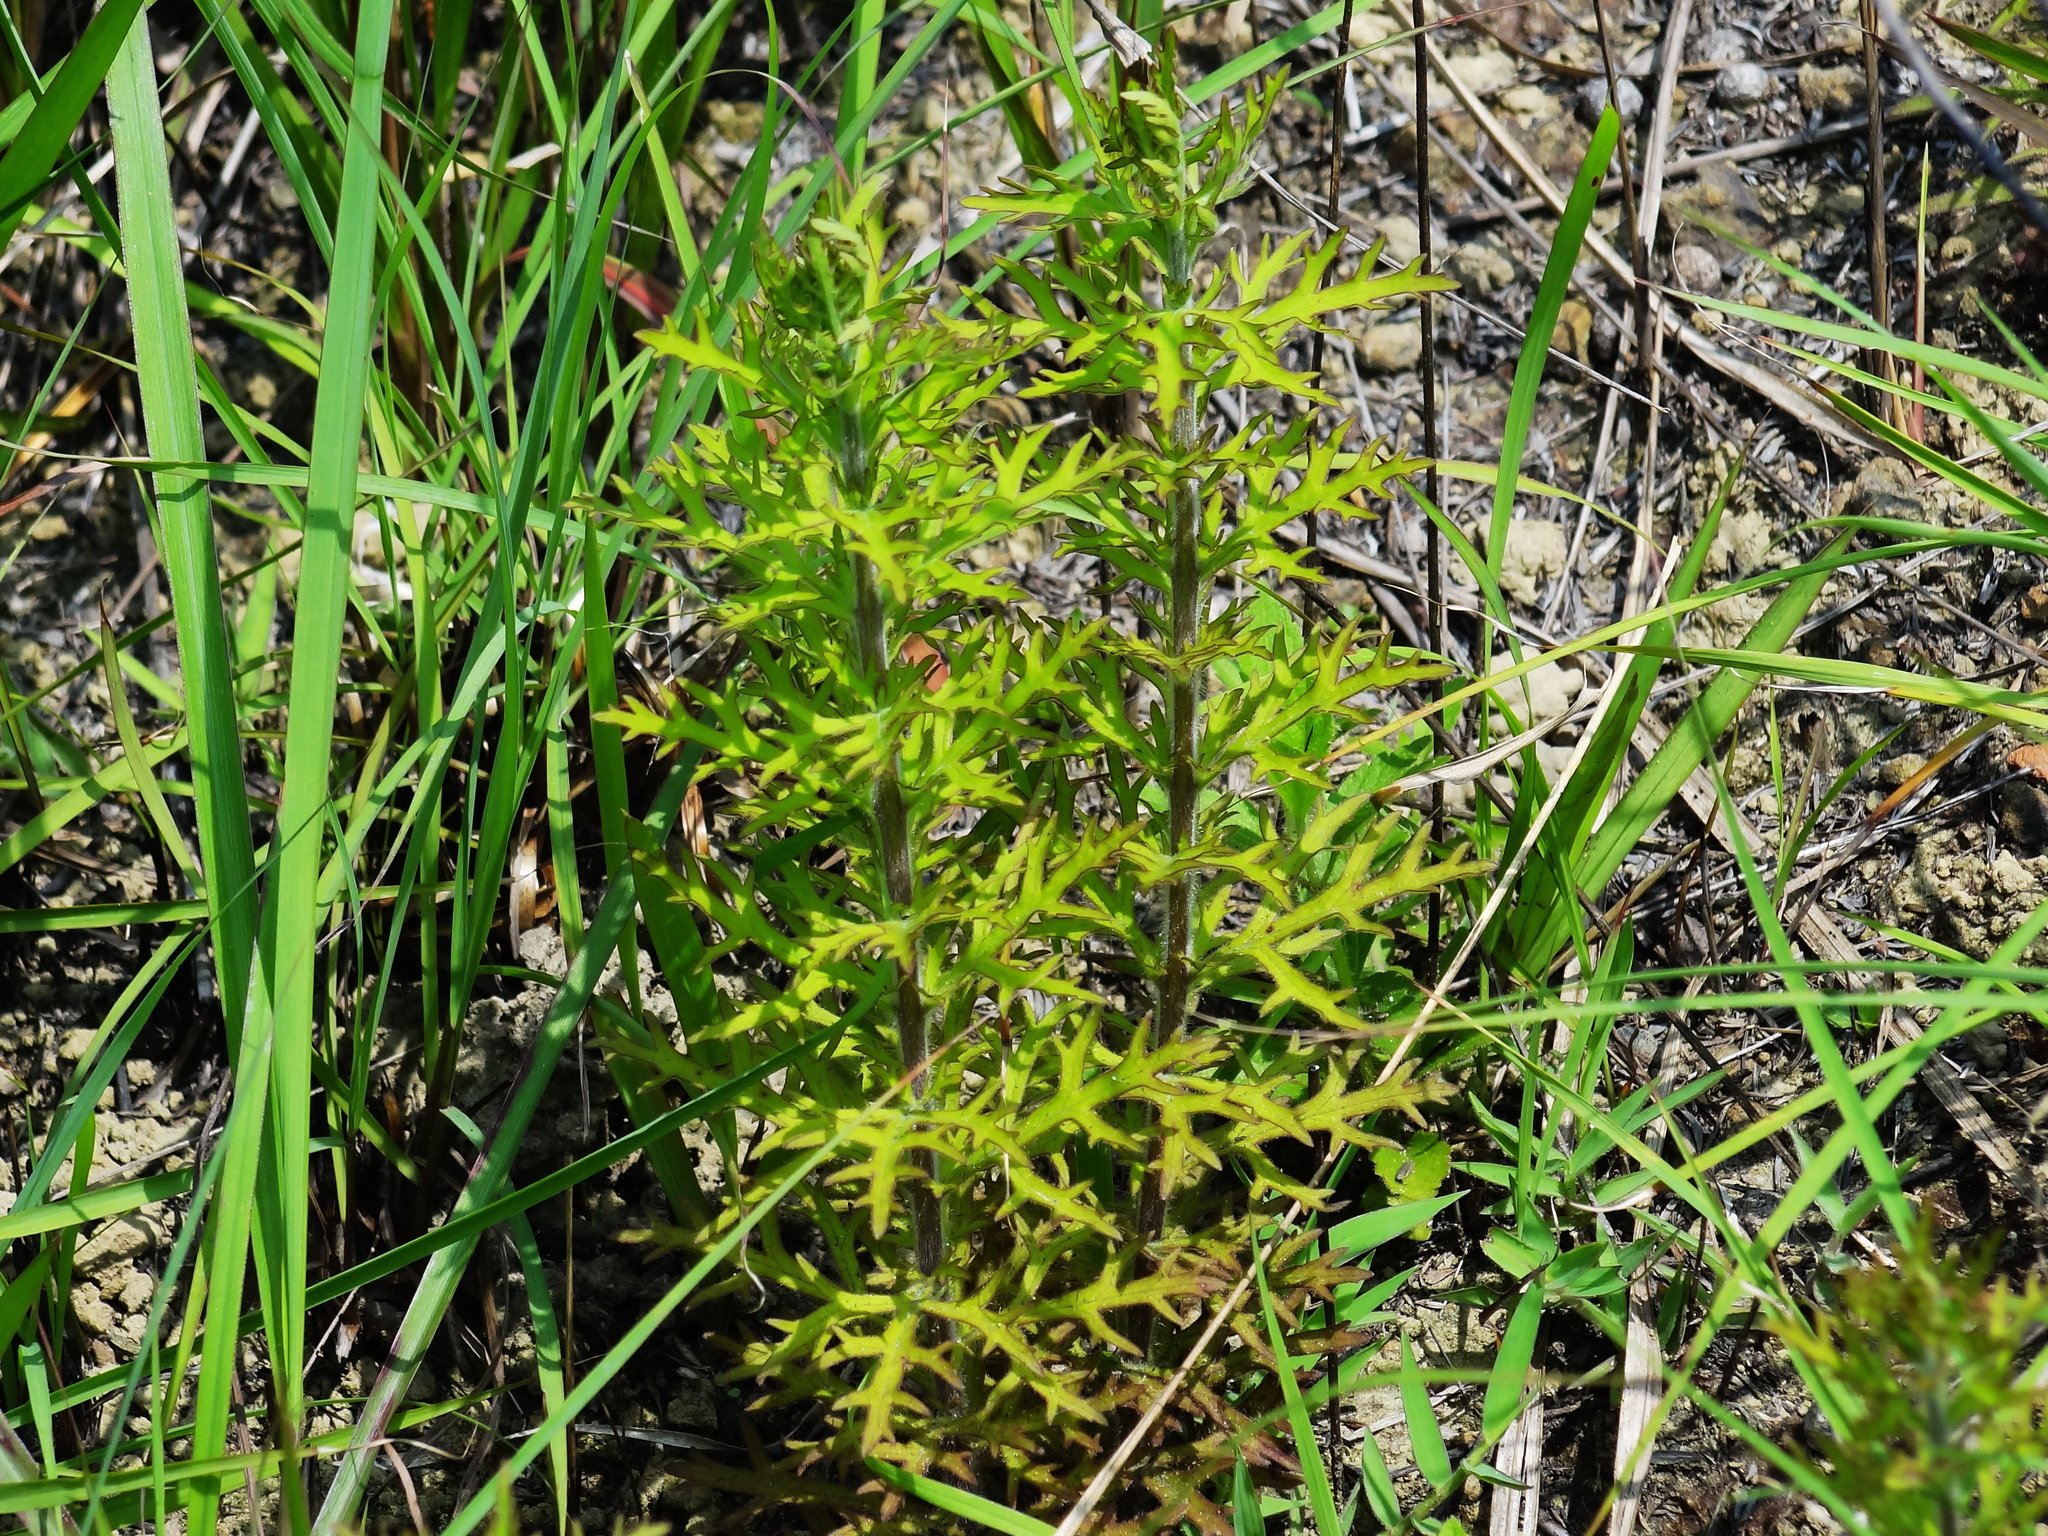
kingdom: Plantae
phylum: Tracheophyta
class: Magnoliopsida
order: Lamiales
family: Orobanchaceae
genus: Siphonostegia
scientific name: Siphonostegia chinensis
